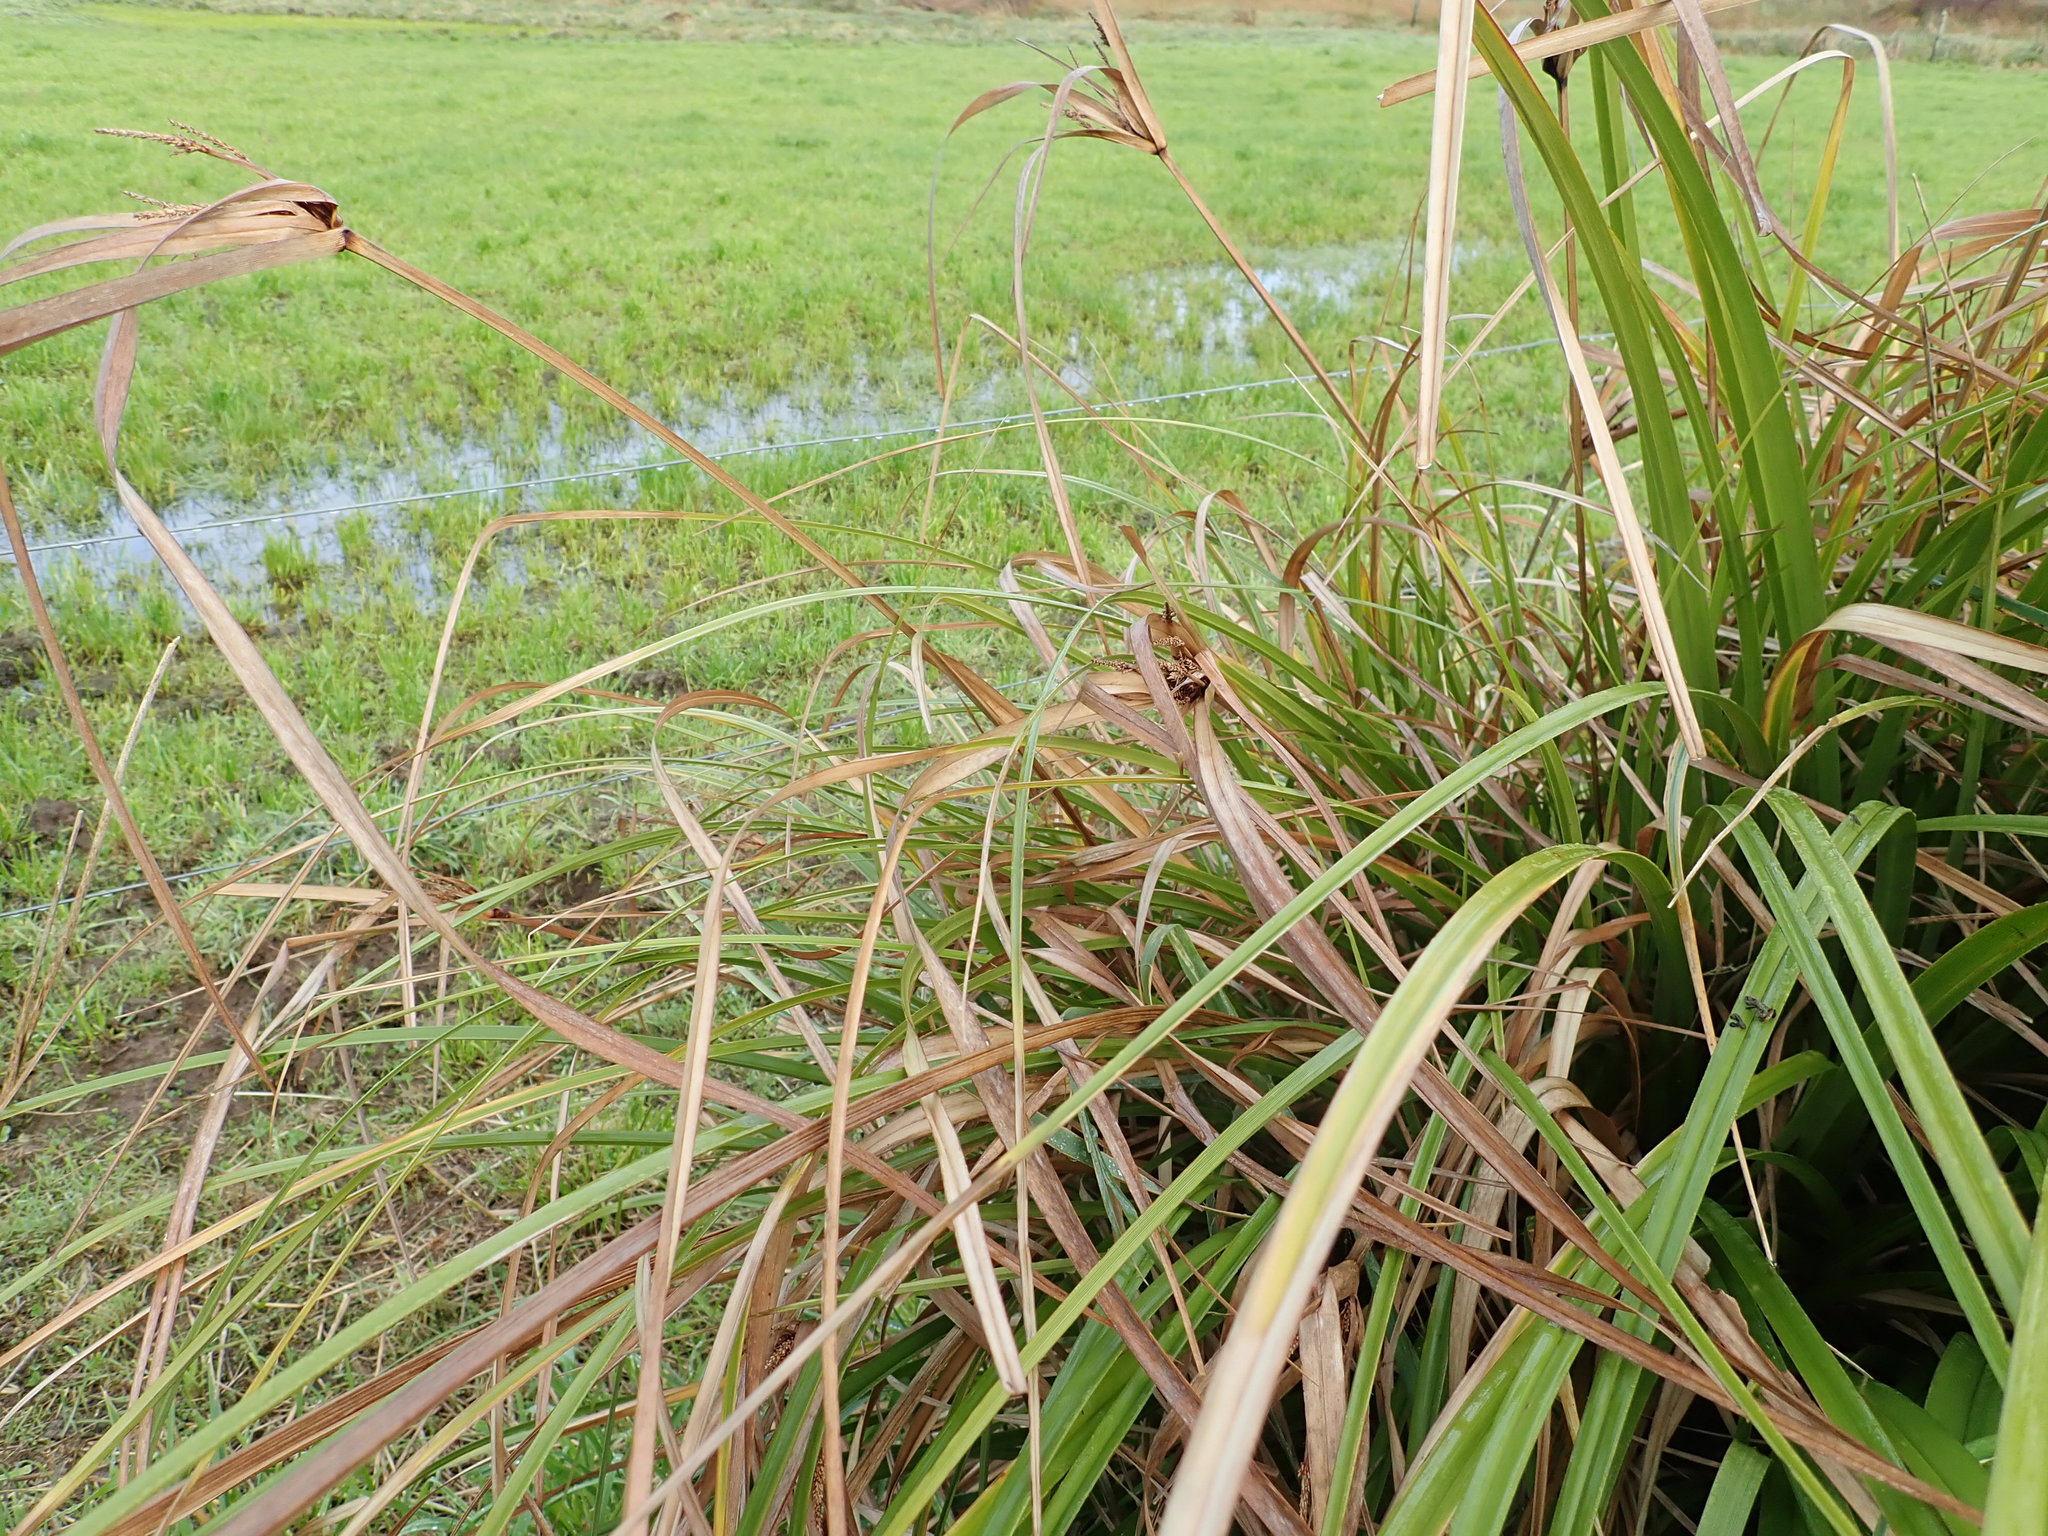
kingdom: Plantae
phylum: Tracheophyta
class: Liliopsida
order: Poales
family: Cyperaceae
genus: Cyperus
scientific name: Cyperus ustulatus
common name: Giant umbrella-sedge
